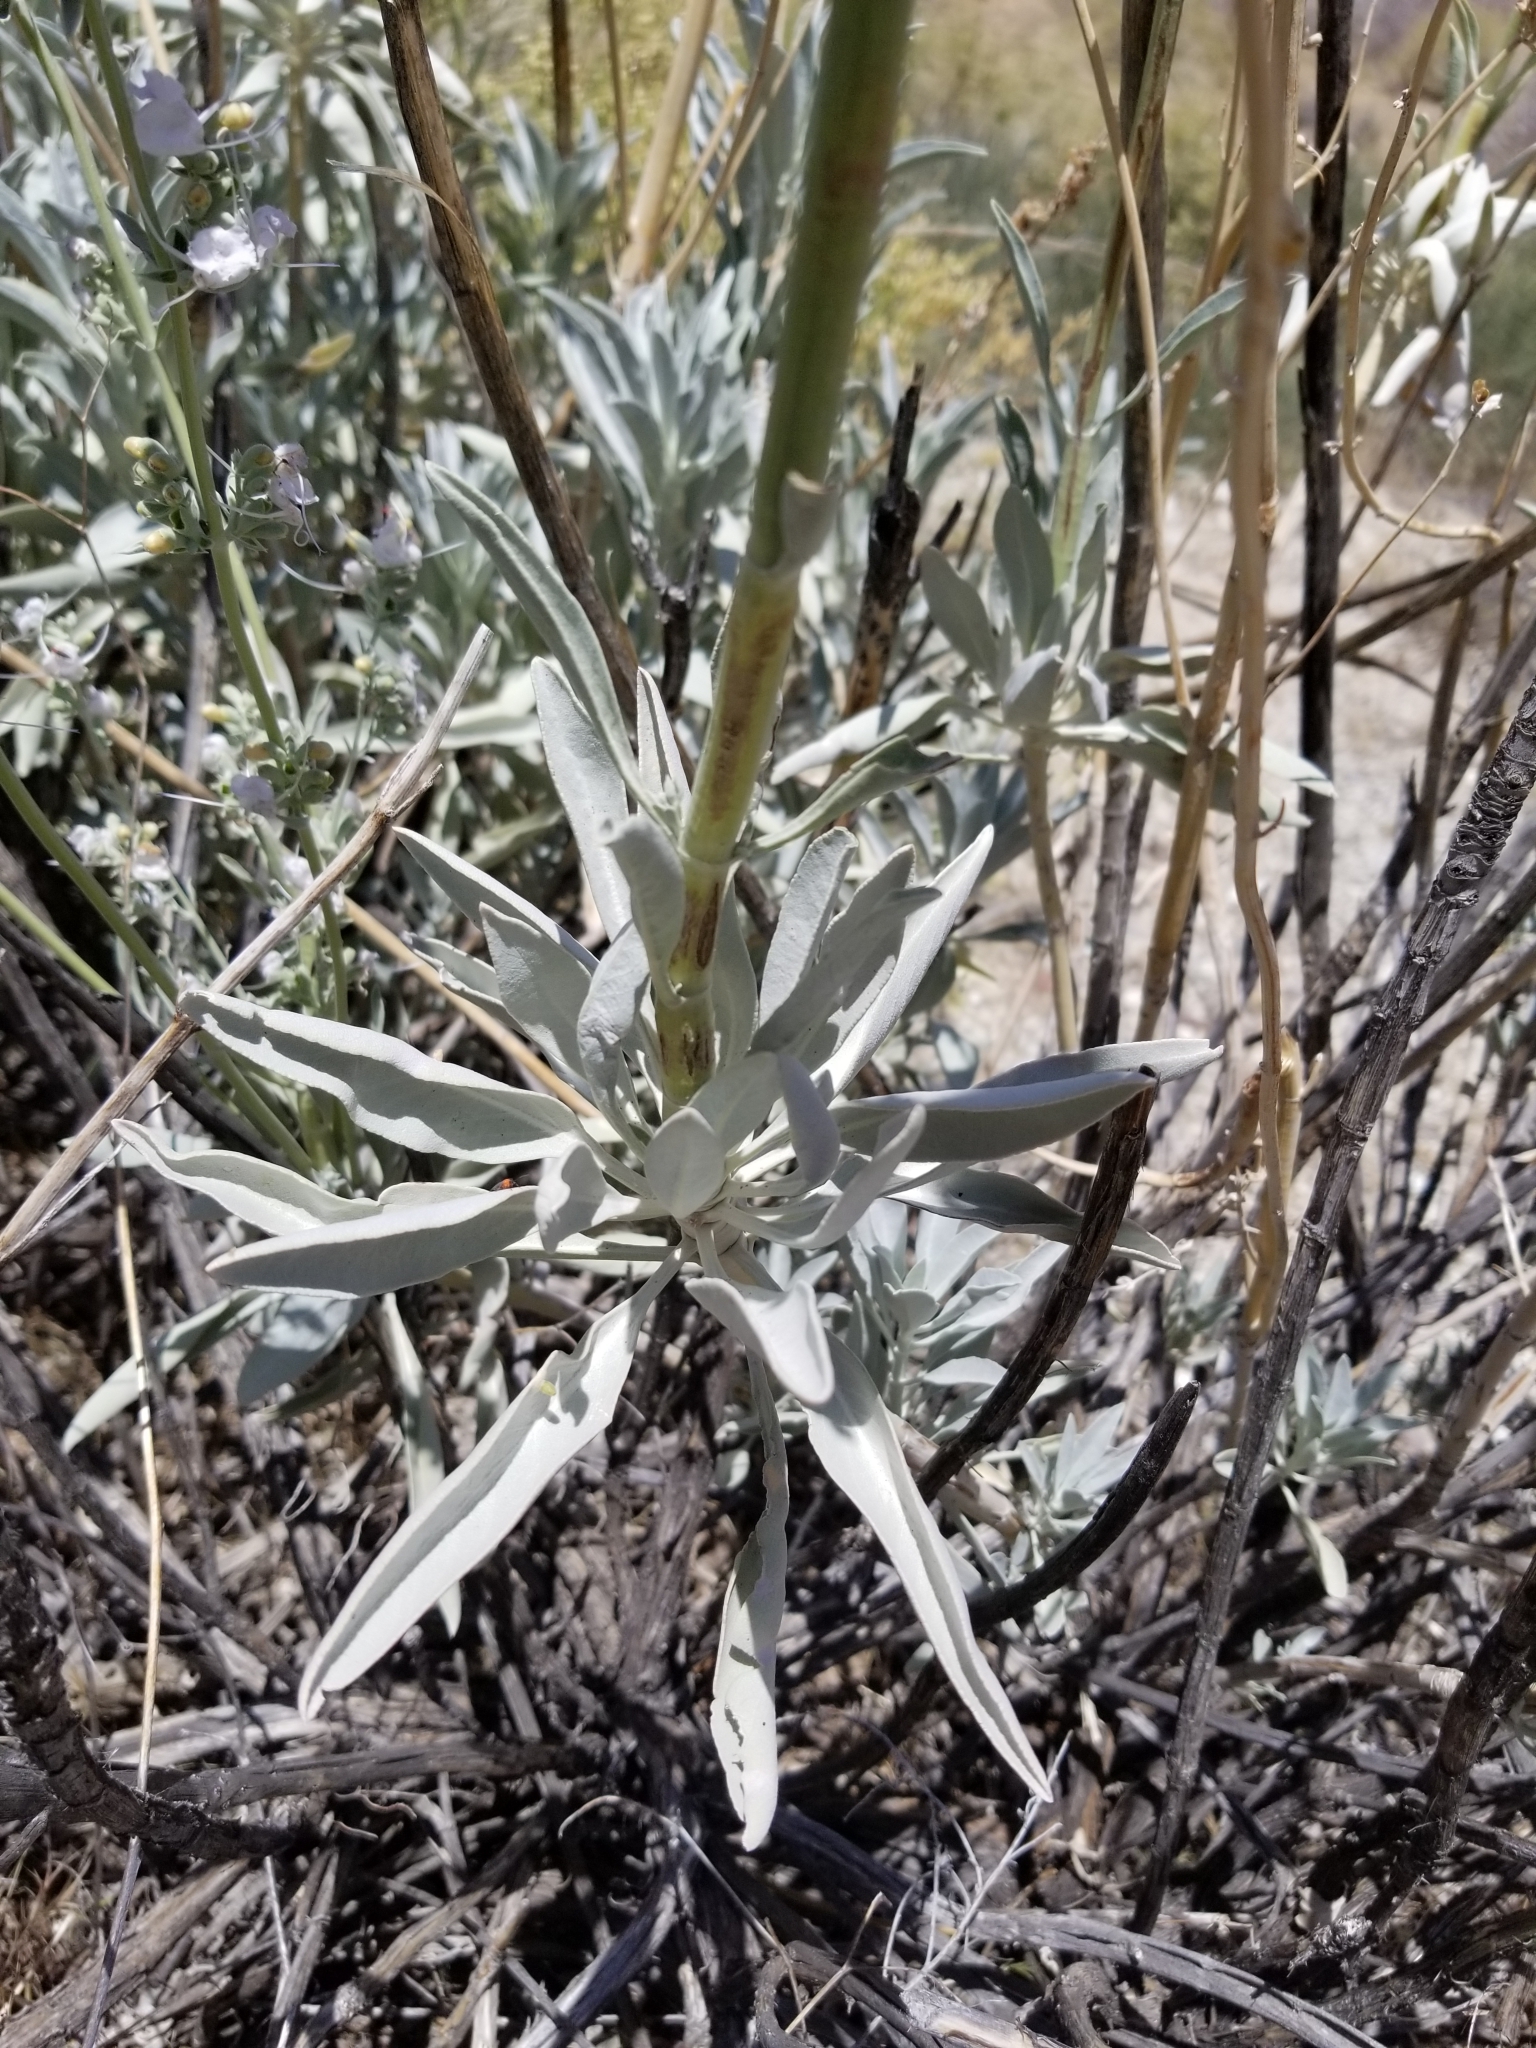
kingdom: Plantae
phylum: Tracheophyta
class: Magnoliopsida
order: Lamiales
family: Lamiaceae
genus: Salvia
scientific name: Salvia apiana
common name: White sage
